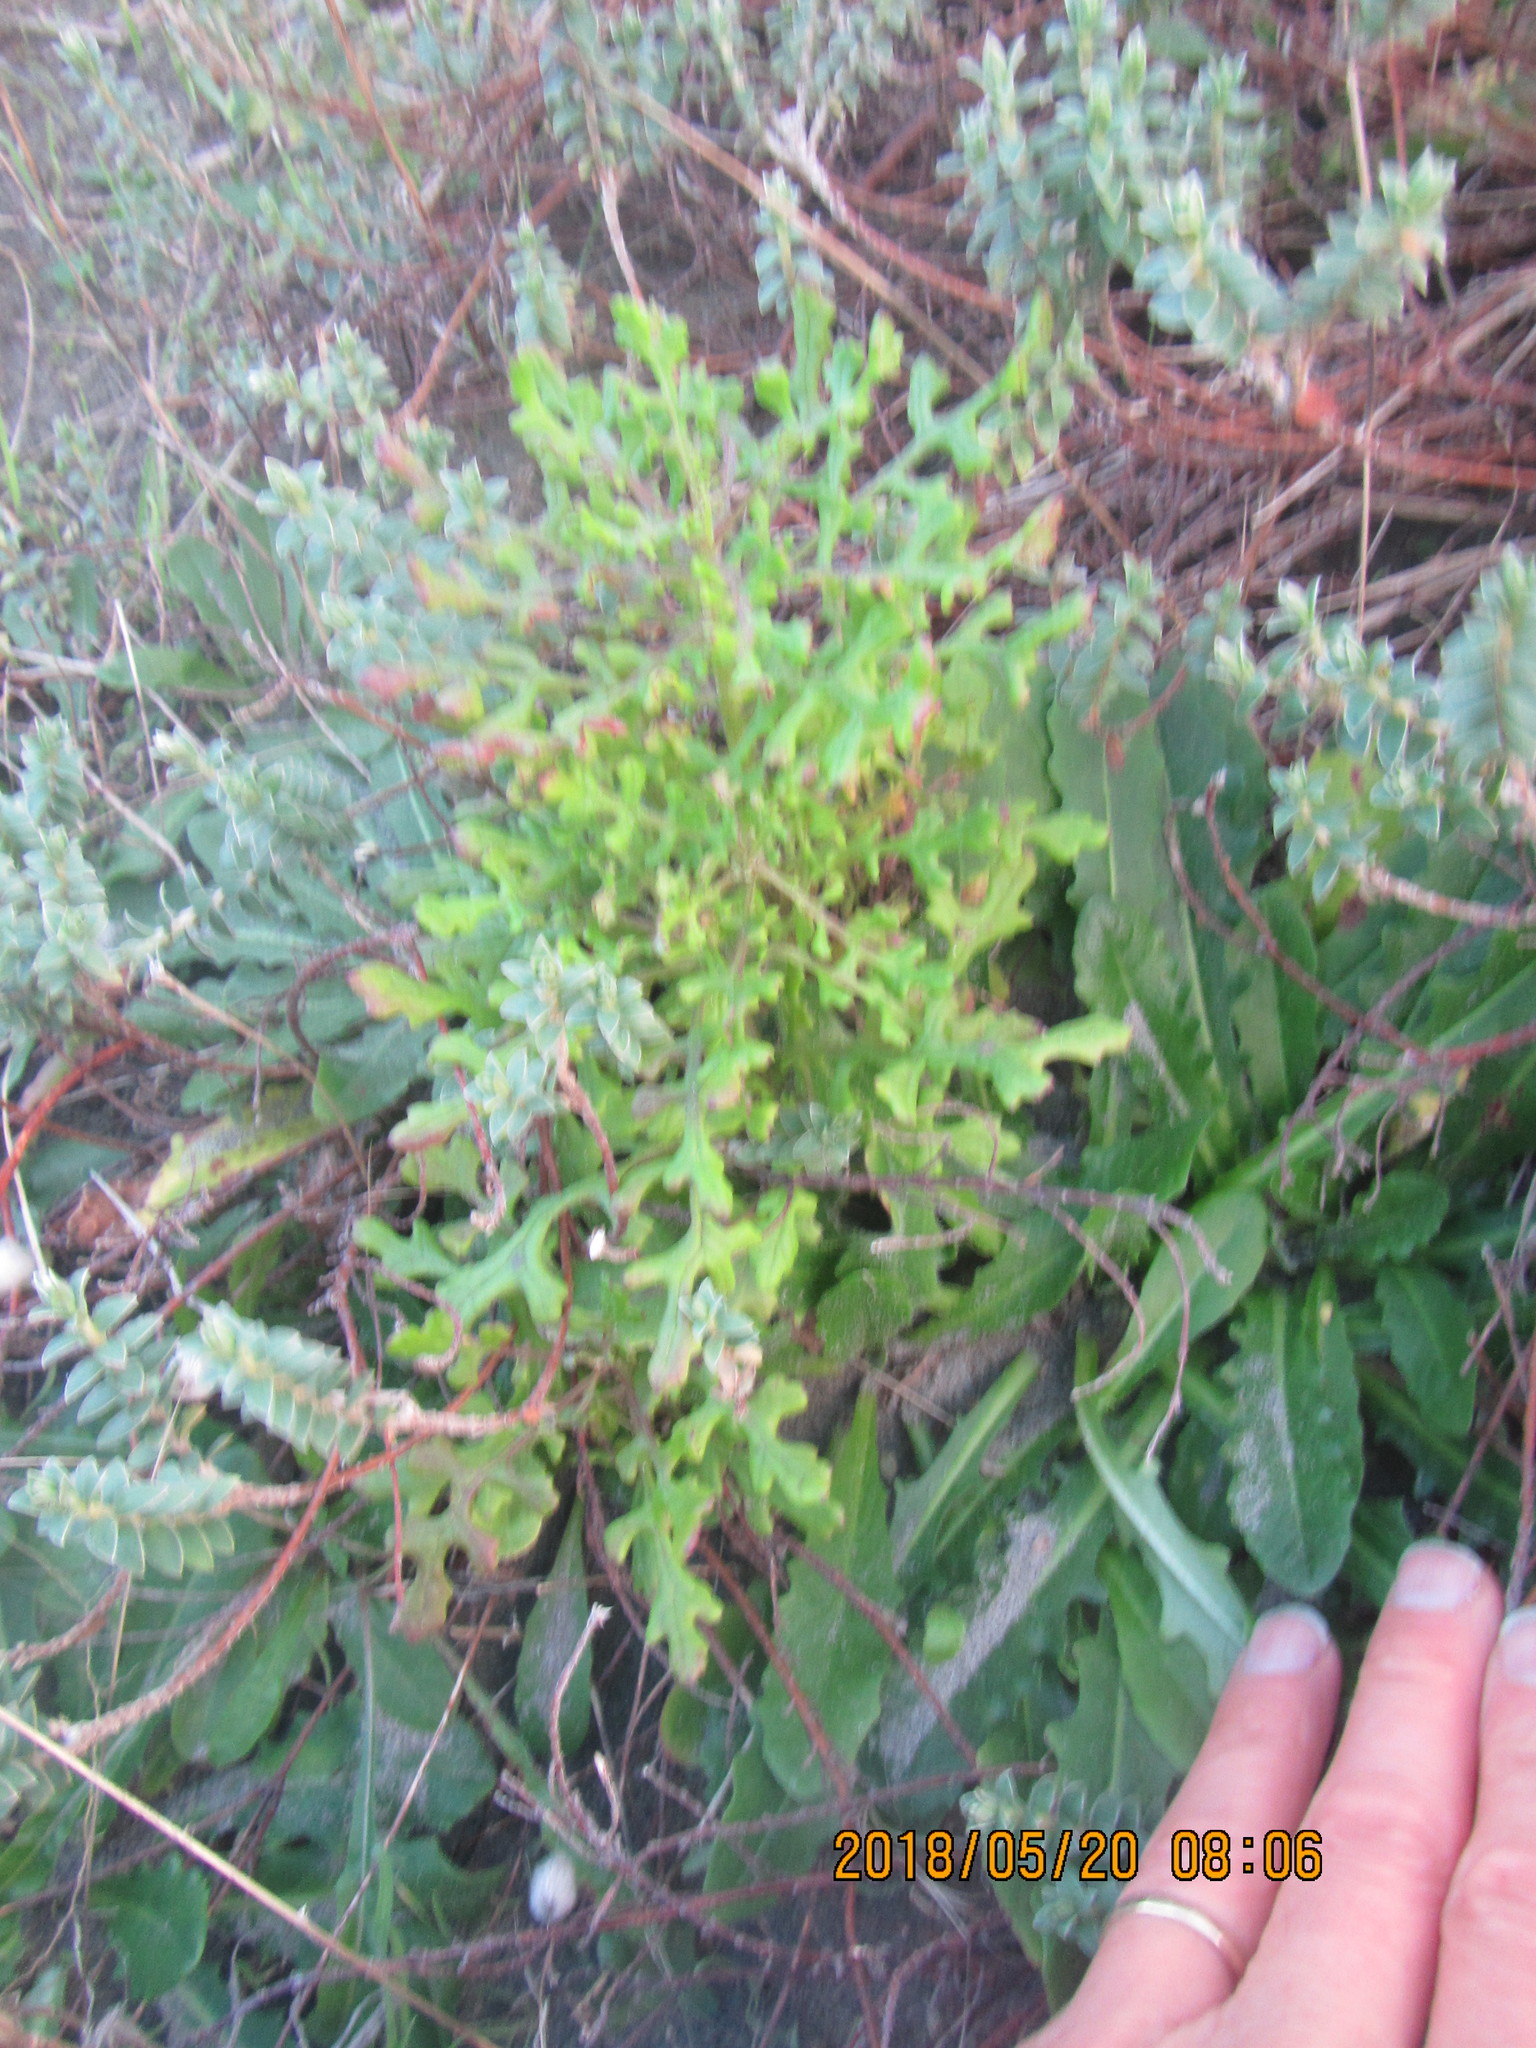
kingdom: Plantae
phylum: Tracheophyta
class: Magnoliopsida
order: Asterales
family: Asteraceae
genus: Senecio
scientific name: Senecio elegans
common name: Purple groundsel
